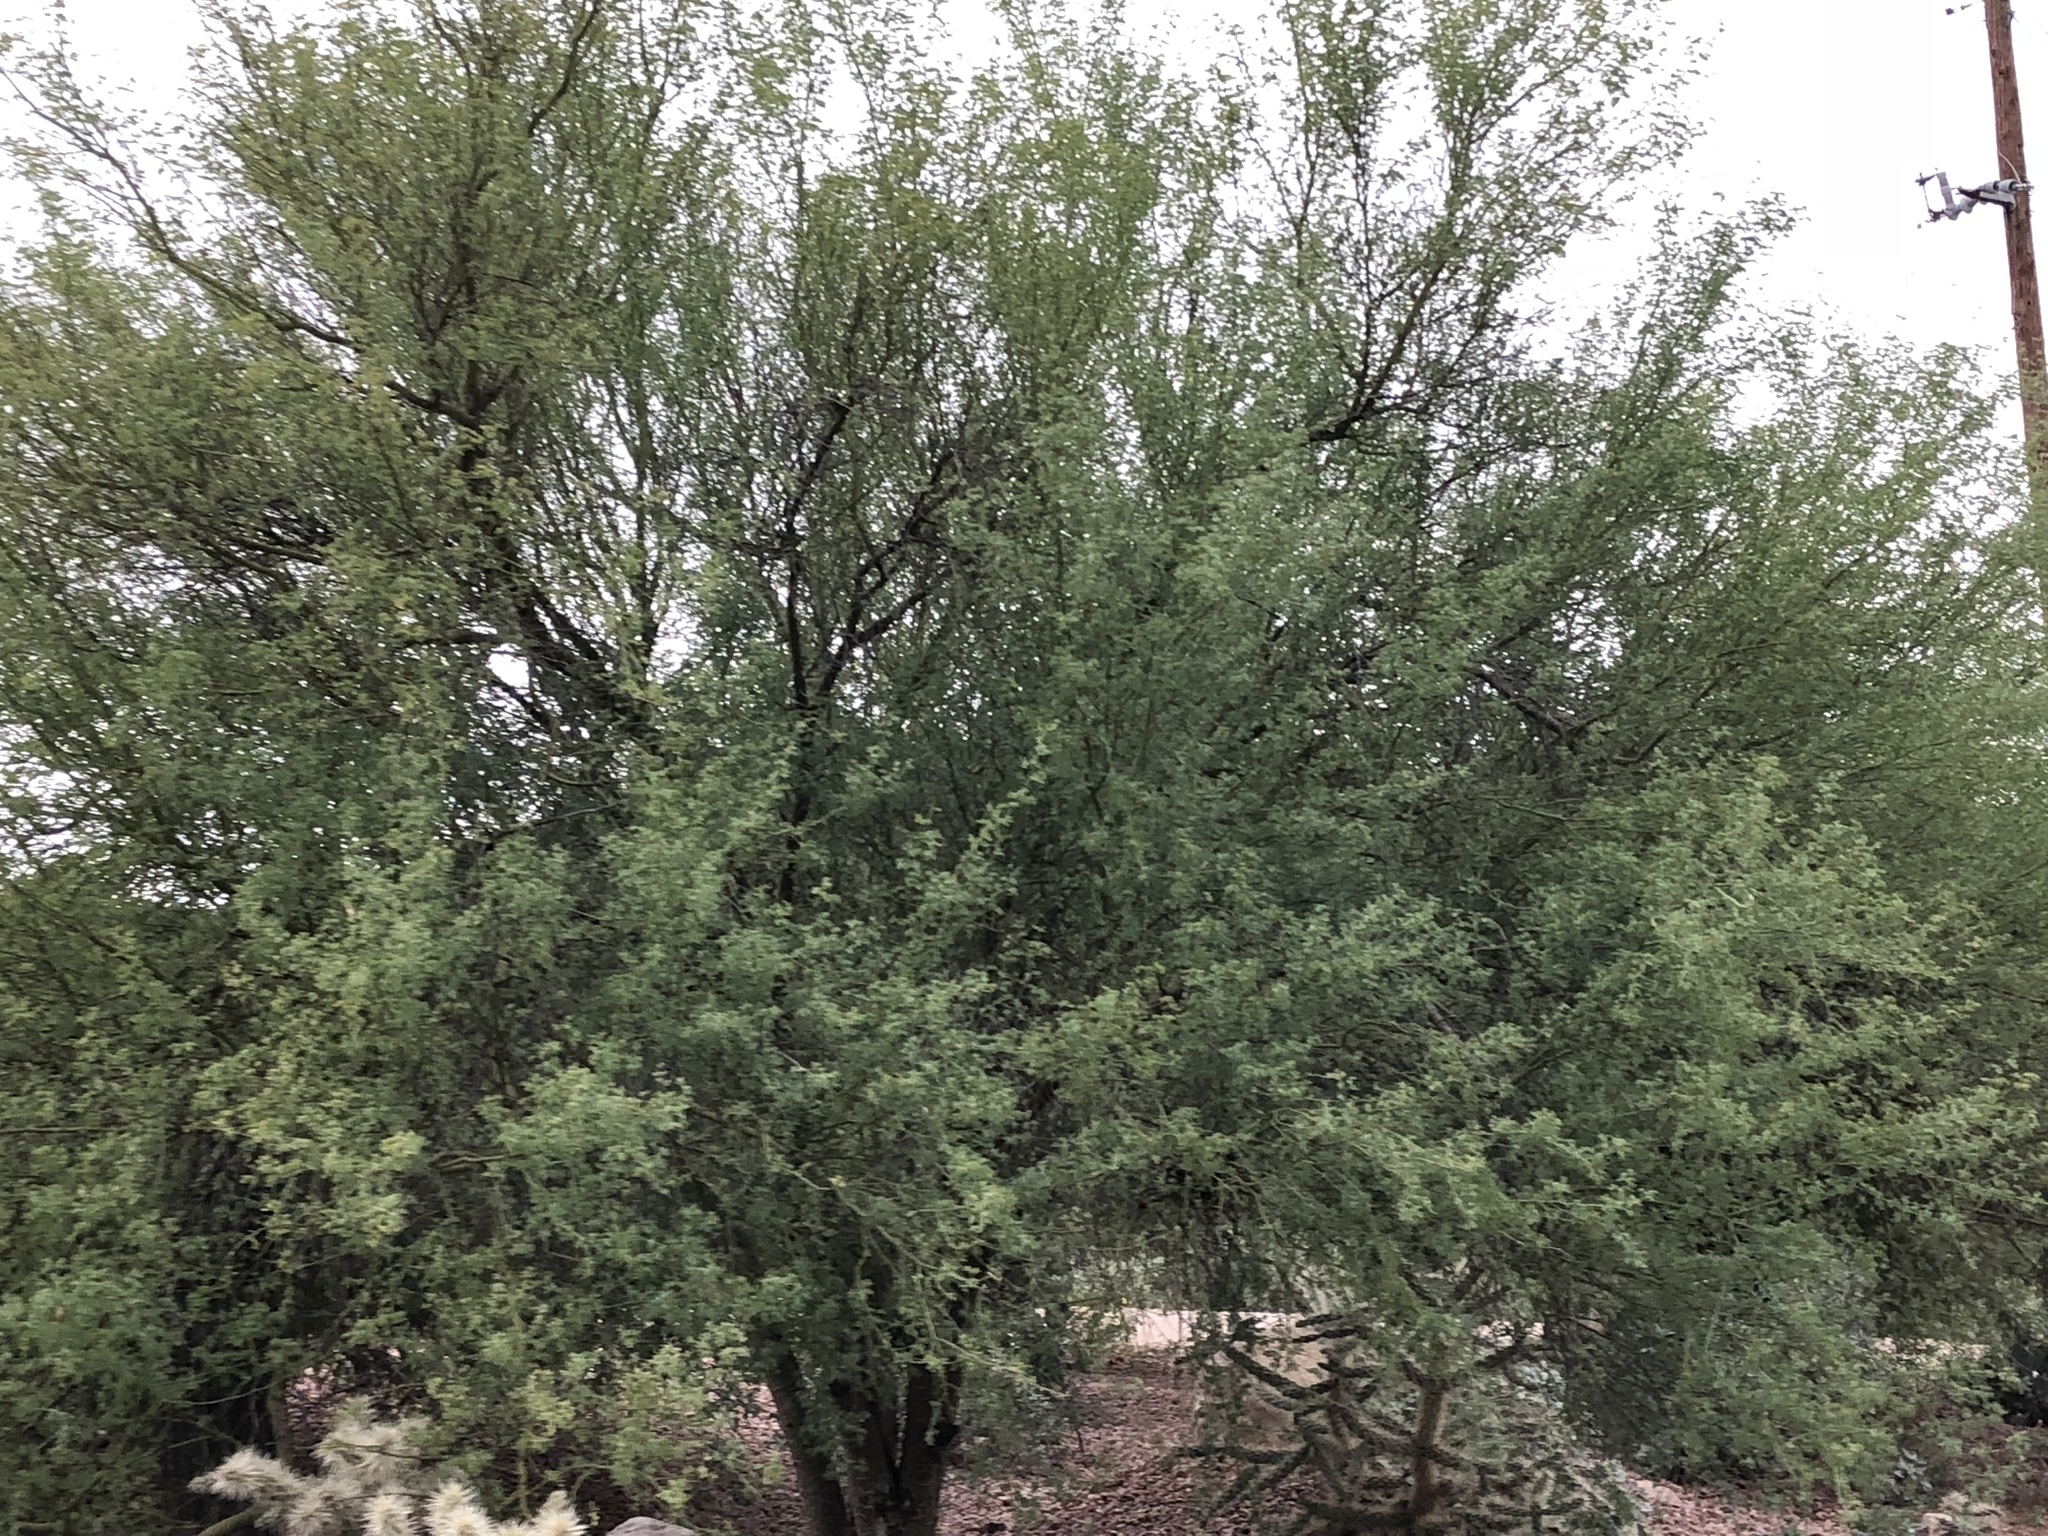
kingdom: Plantae
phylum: Tracheophyta
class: Magnoliopsida
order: Fabales
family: Fabaceae
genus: Vachellia
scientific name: Vachellia farnesiana
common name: Sweet acacia
